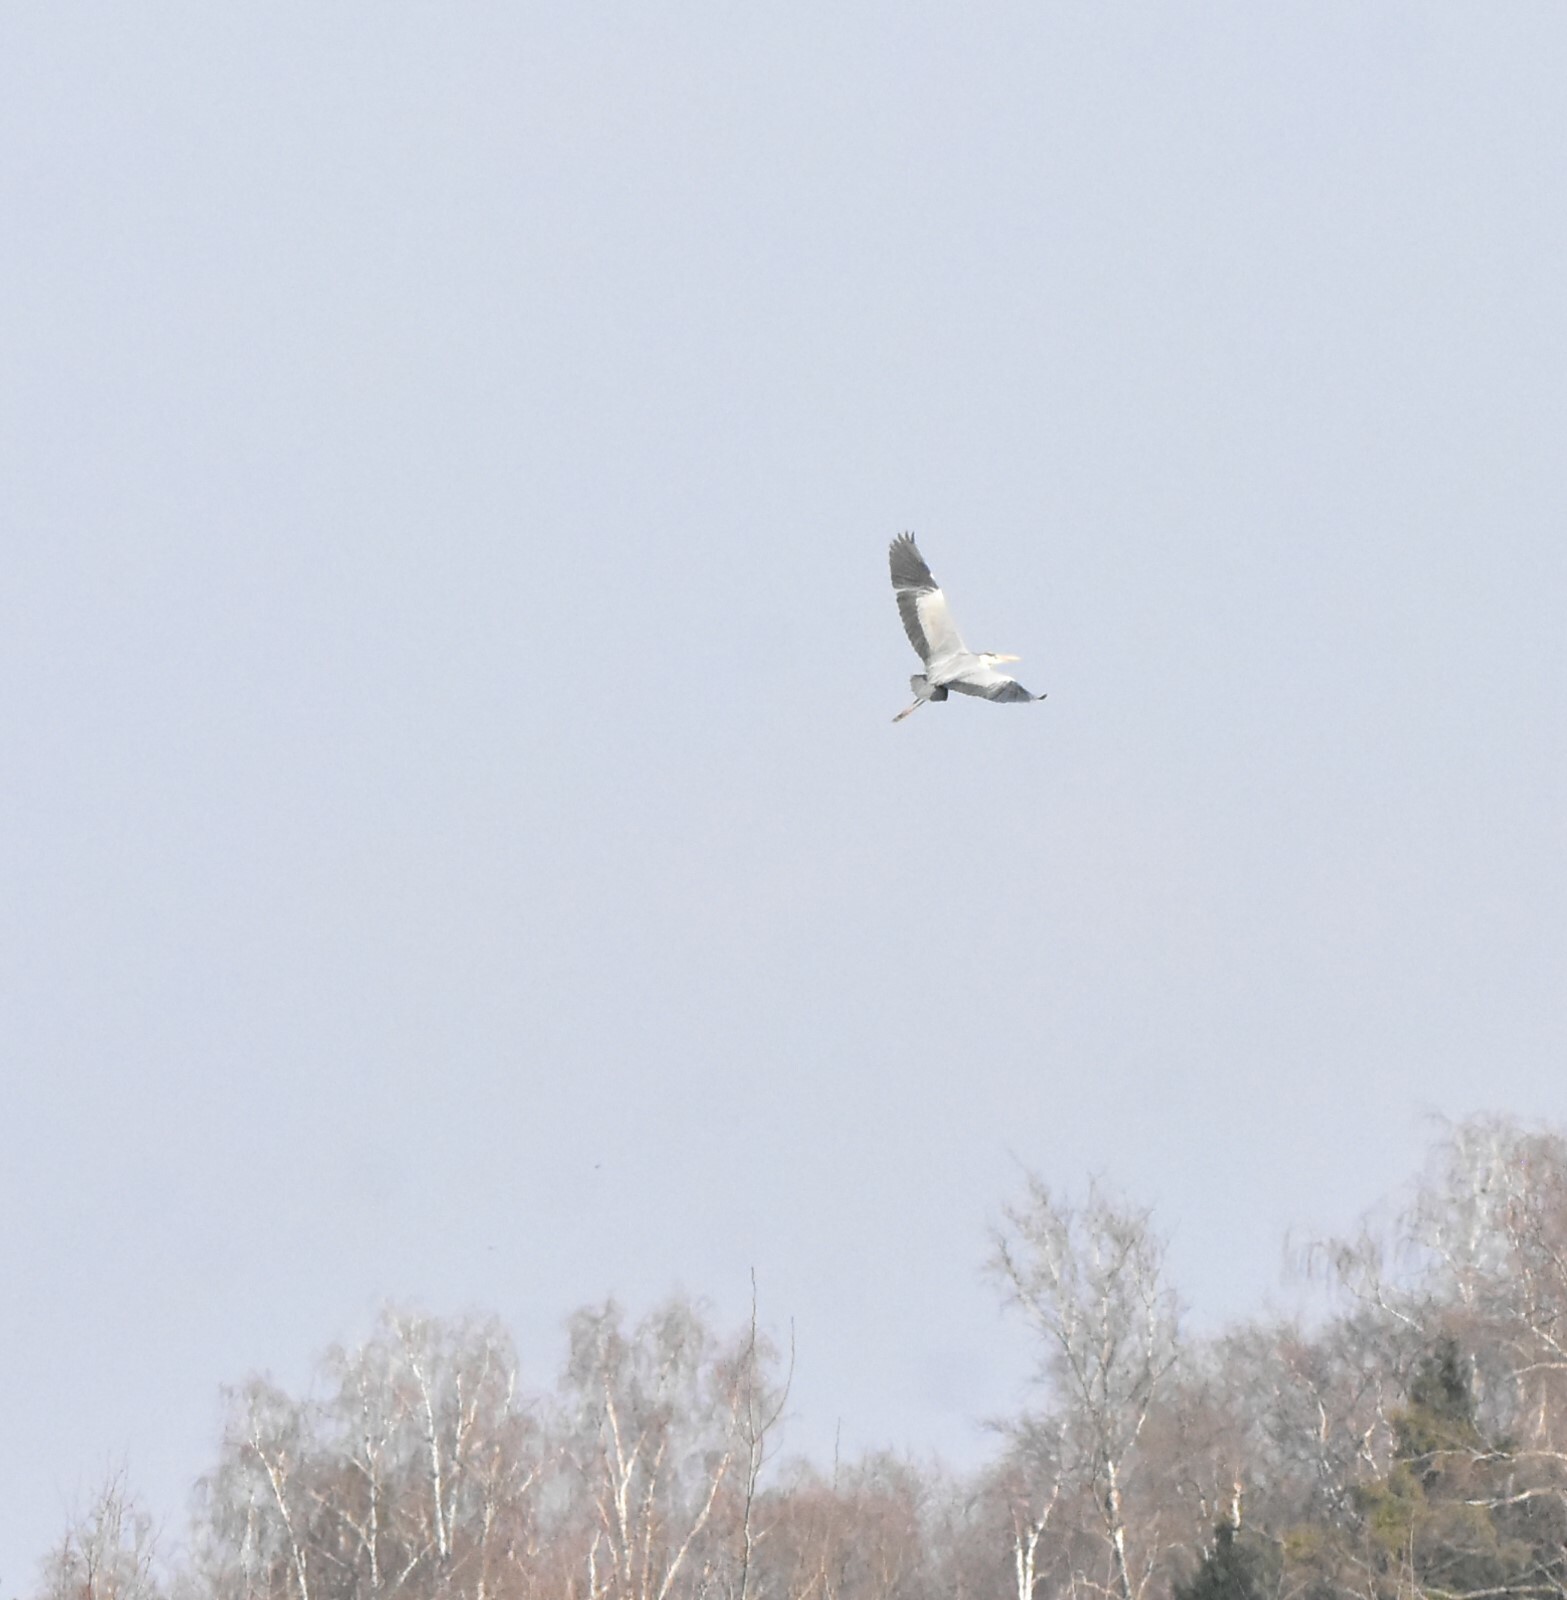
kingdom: Animalia
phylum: Chordata
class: Aves
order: Pelecaniformes
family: Ardeidae
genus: Ardea
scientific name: Ardea cinerea
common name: Grey heron
